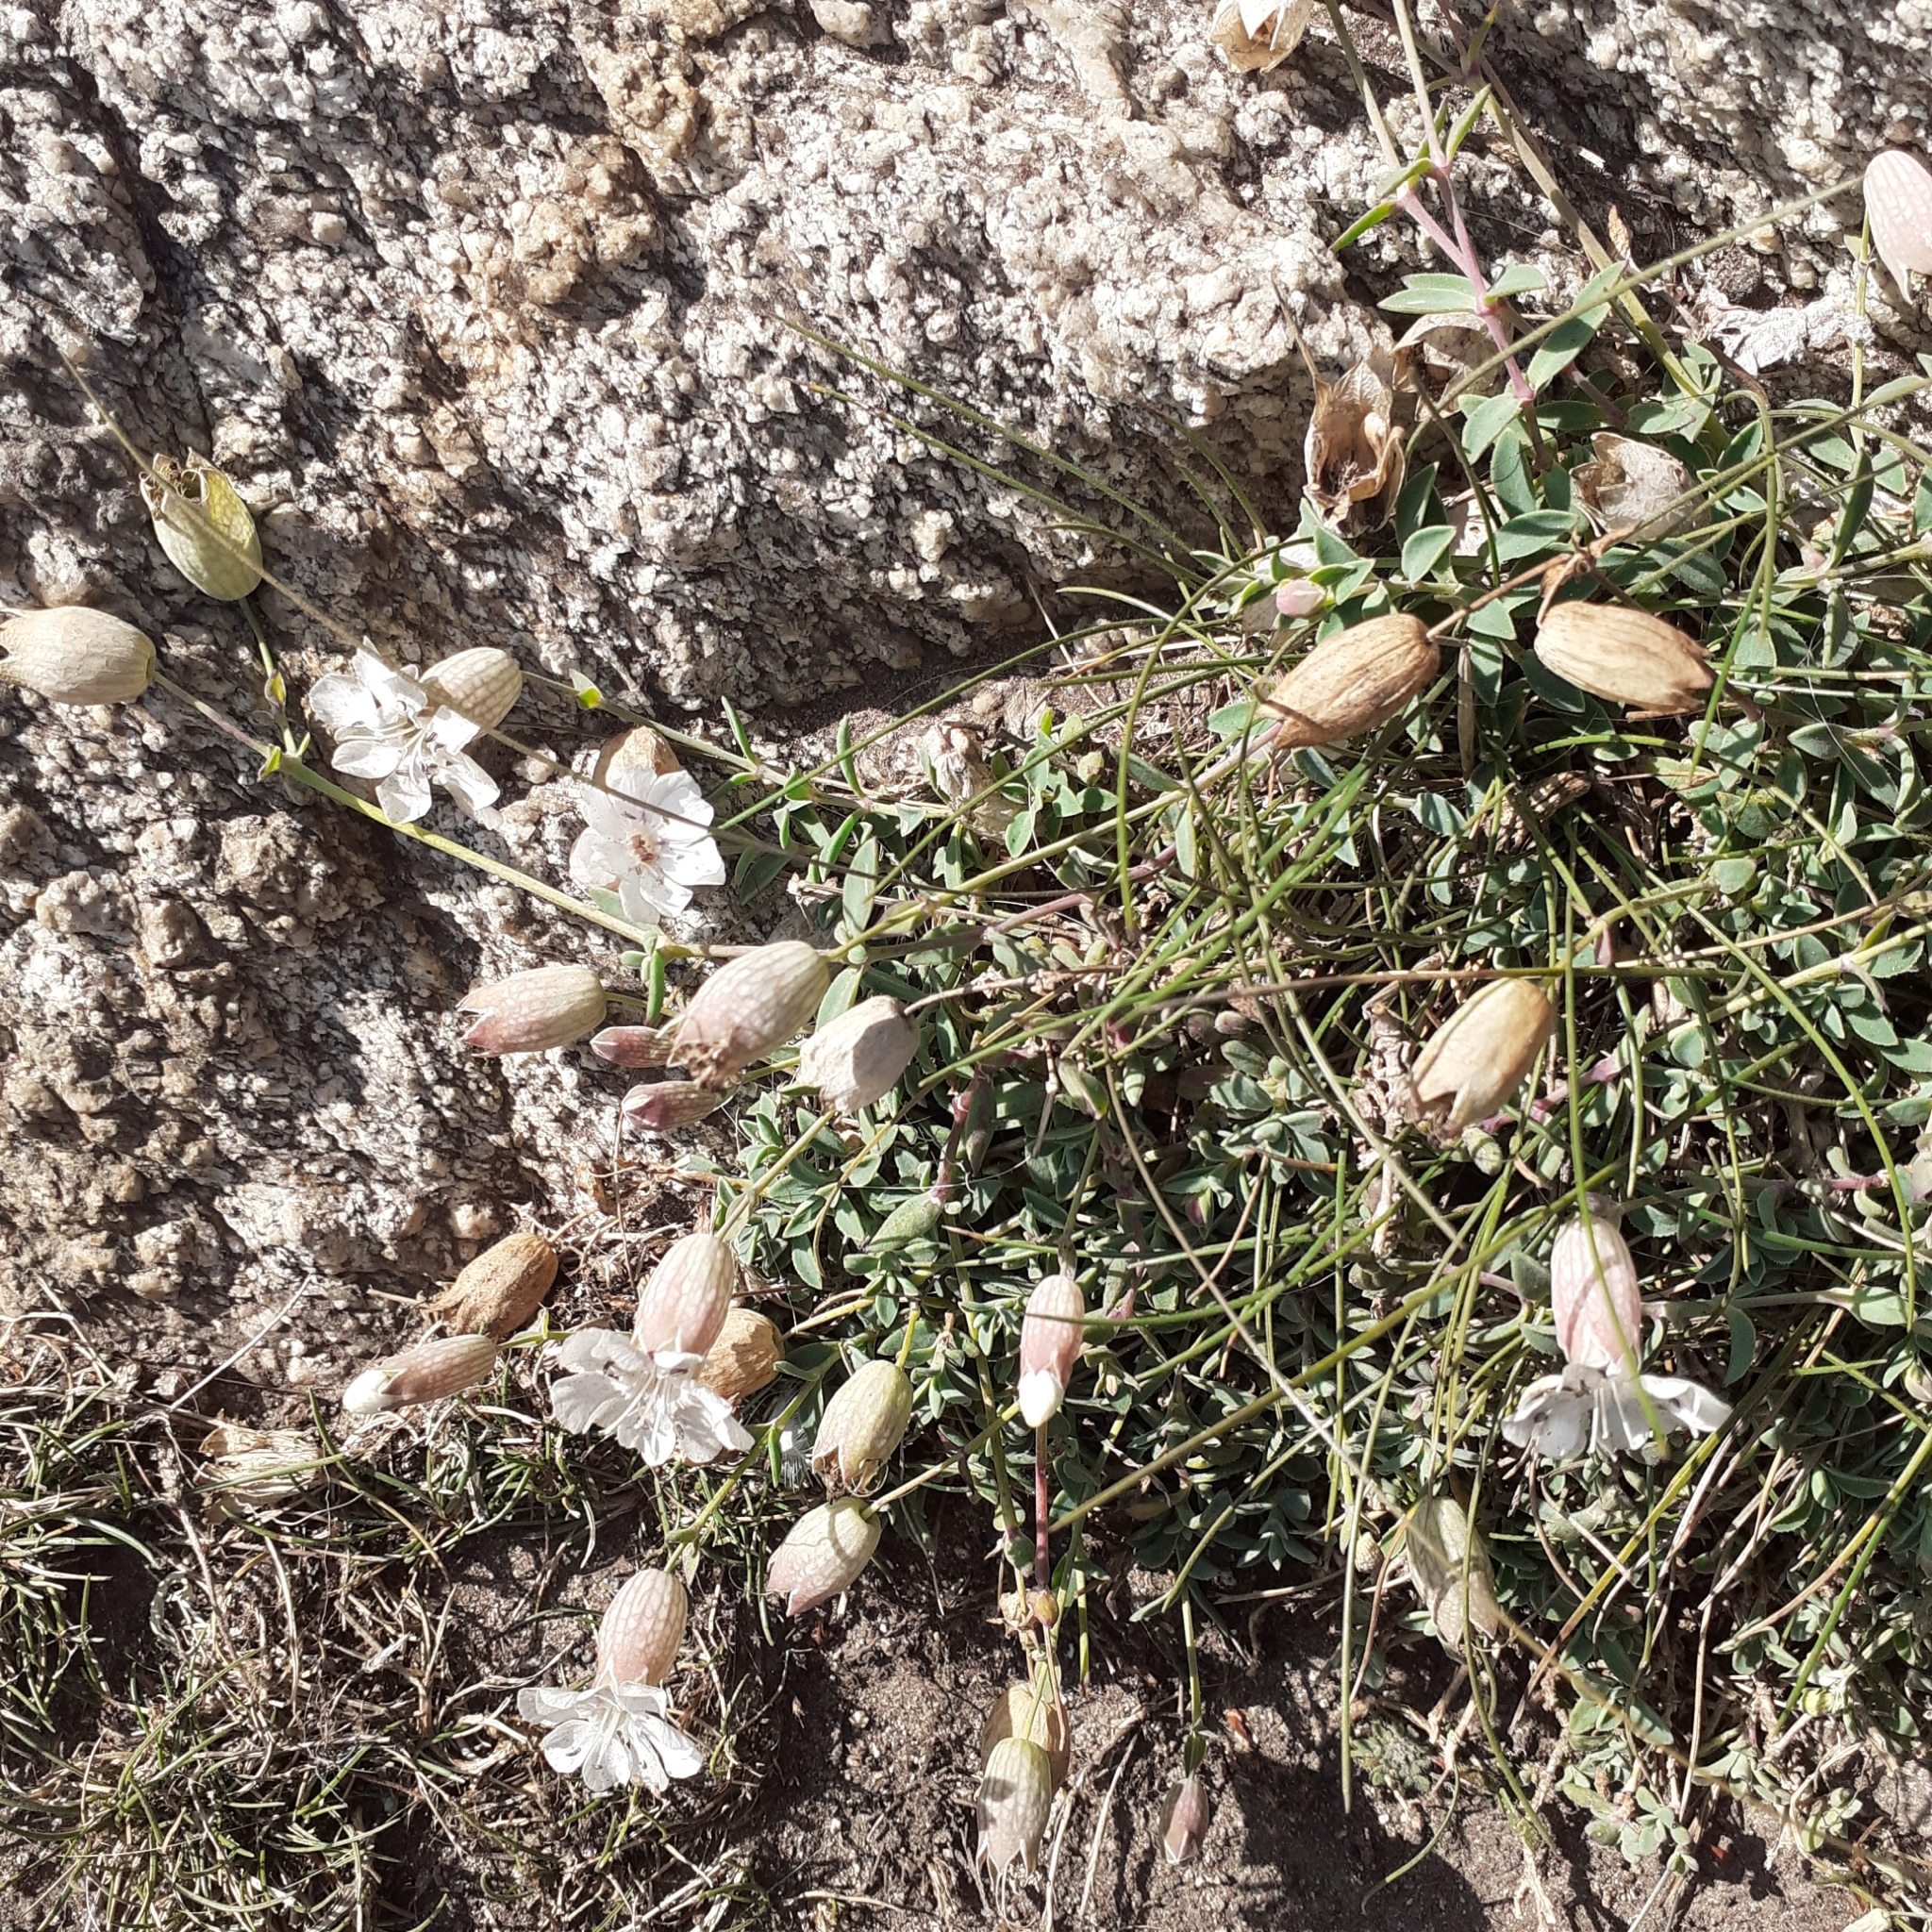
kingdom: Plantae
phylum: Tracheophyta
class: Magnoliopsida
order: Caryophyllales
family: Caryophyllaceae
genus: Silene
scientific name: Silene uniflora
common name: Sea campion
